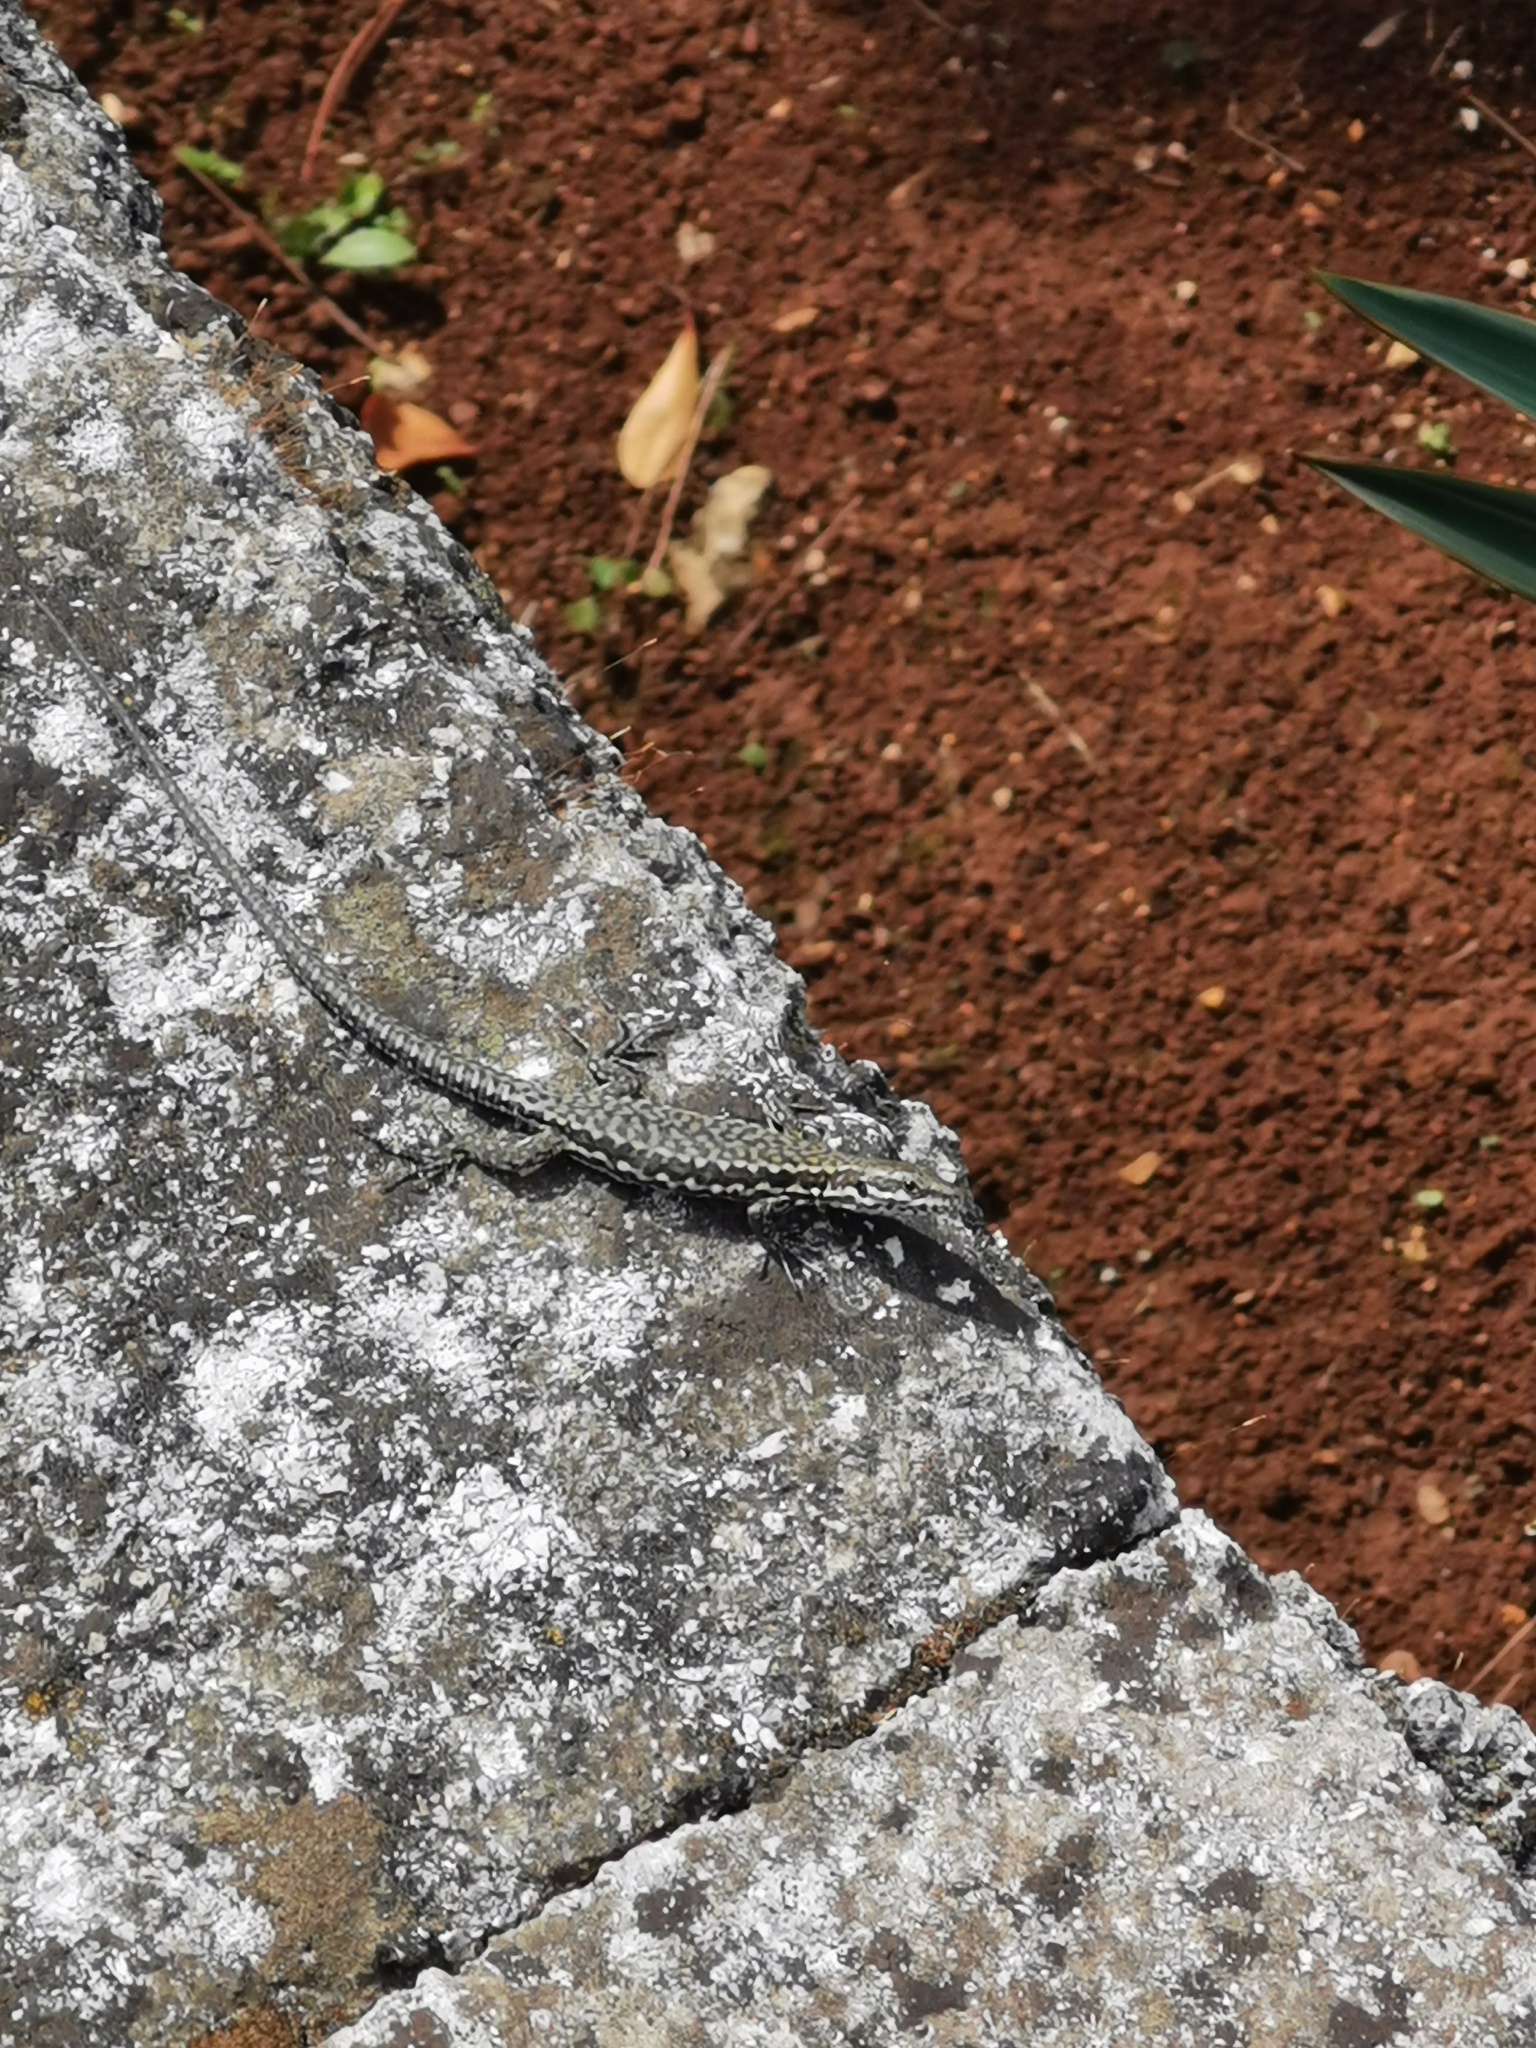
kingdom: Animalia
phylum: Chordata
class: Squamata
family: Lacertidae
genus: Podarcis
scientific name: Podarcis muralis
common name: Common wall lizard
